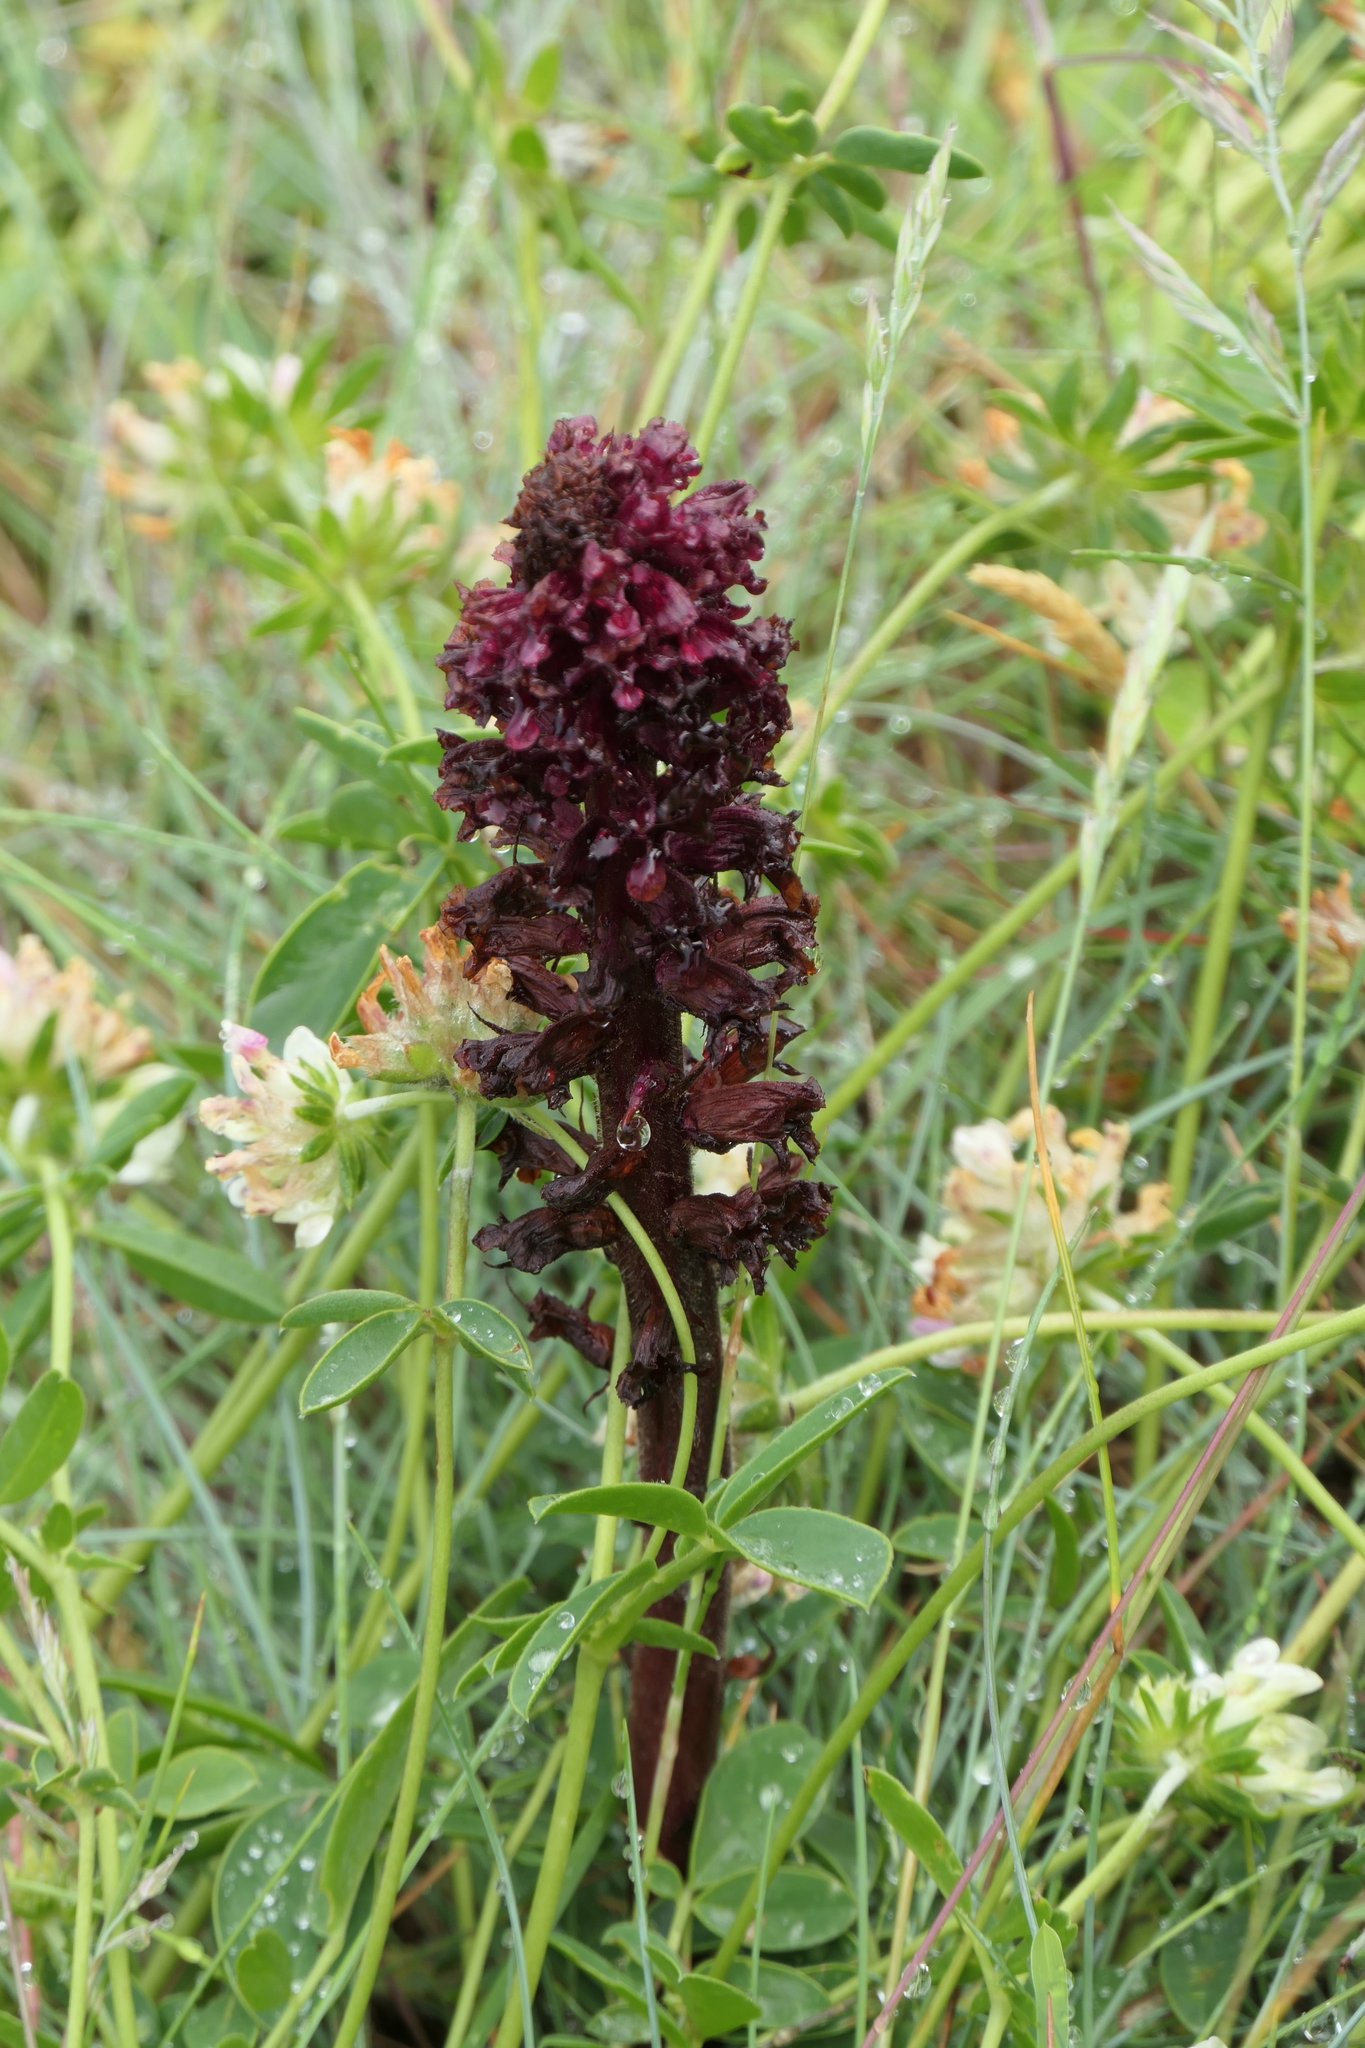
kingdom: Plantae
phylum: Tracheophyta
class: Magnoliopsida
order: Lamiales
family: Orobanchaceae
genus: Orobanche
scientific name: Orobanche foetida
